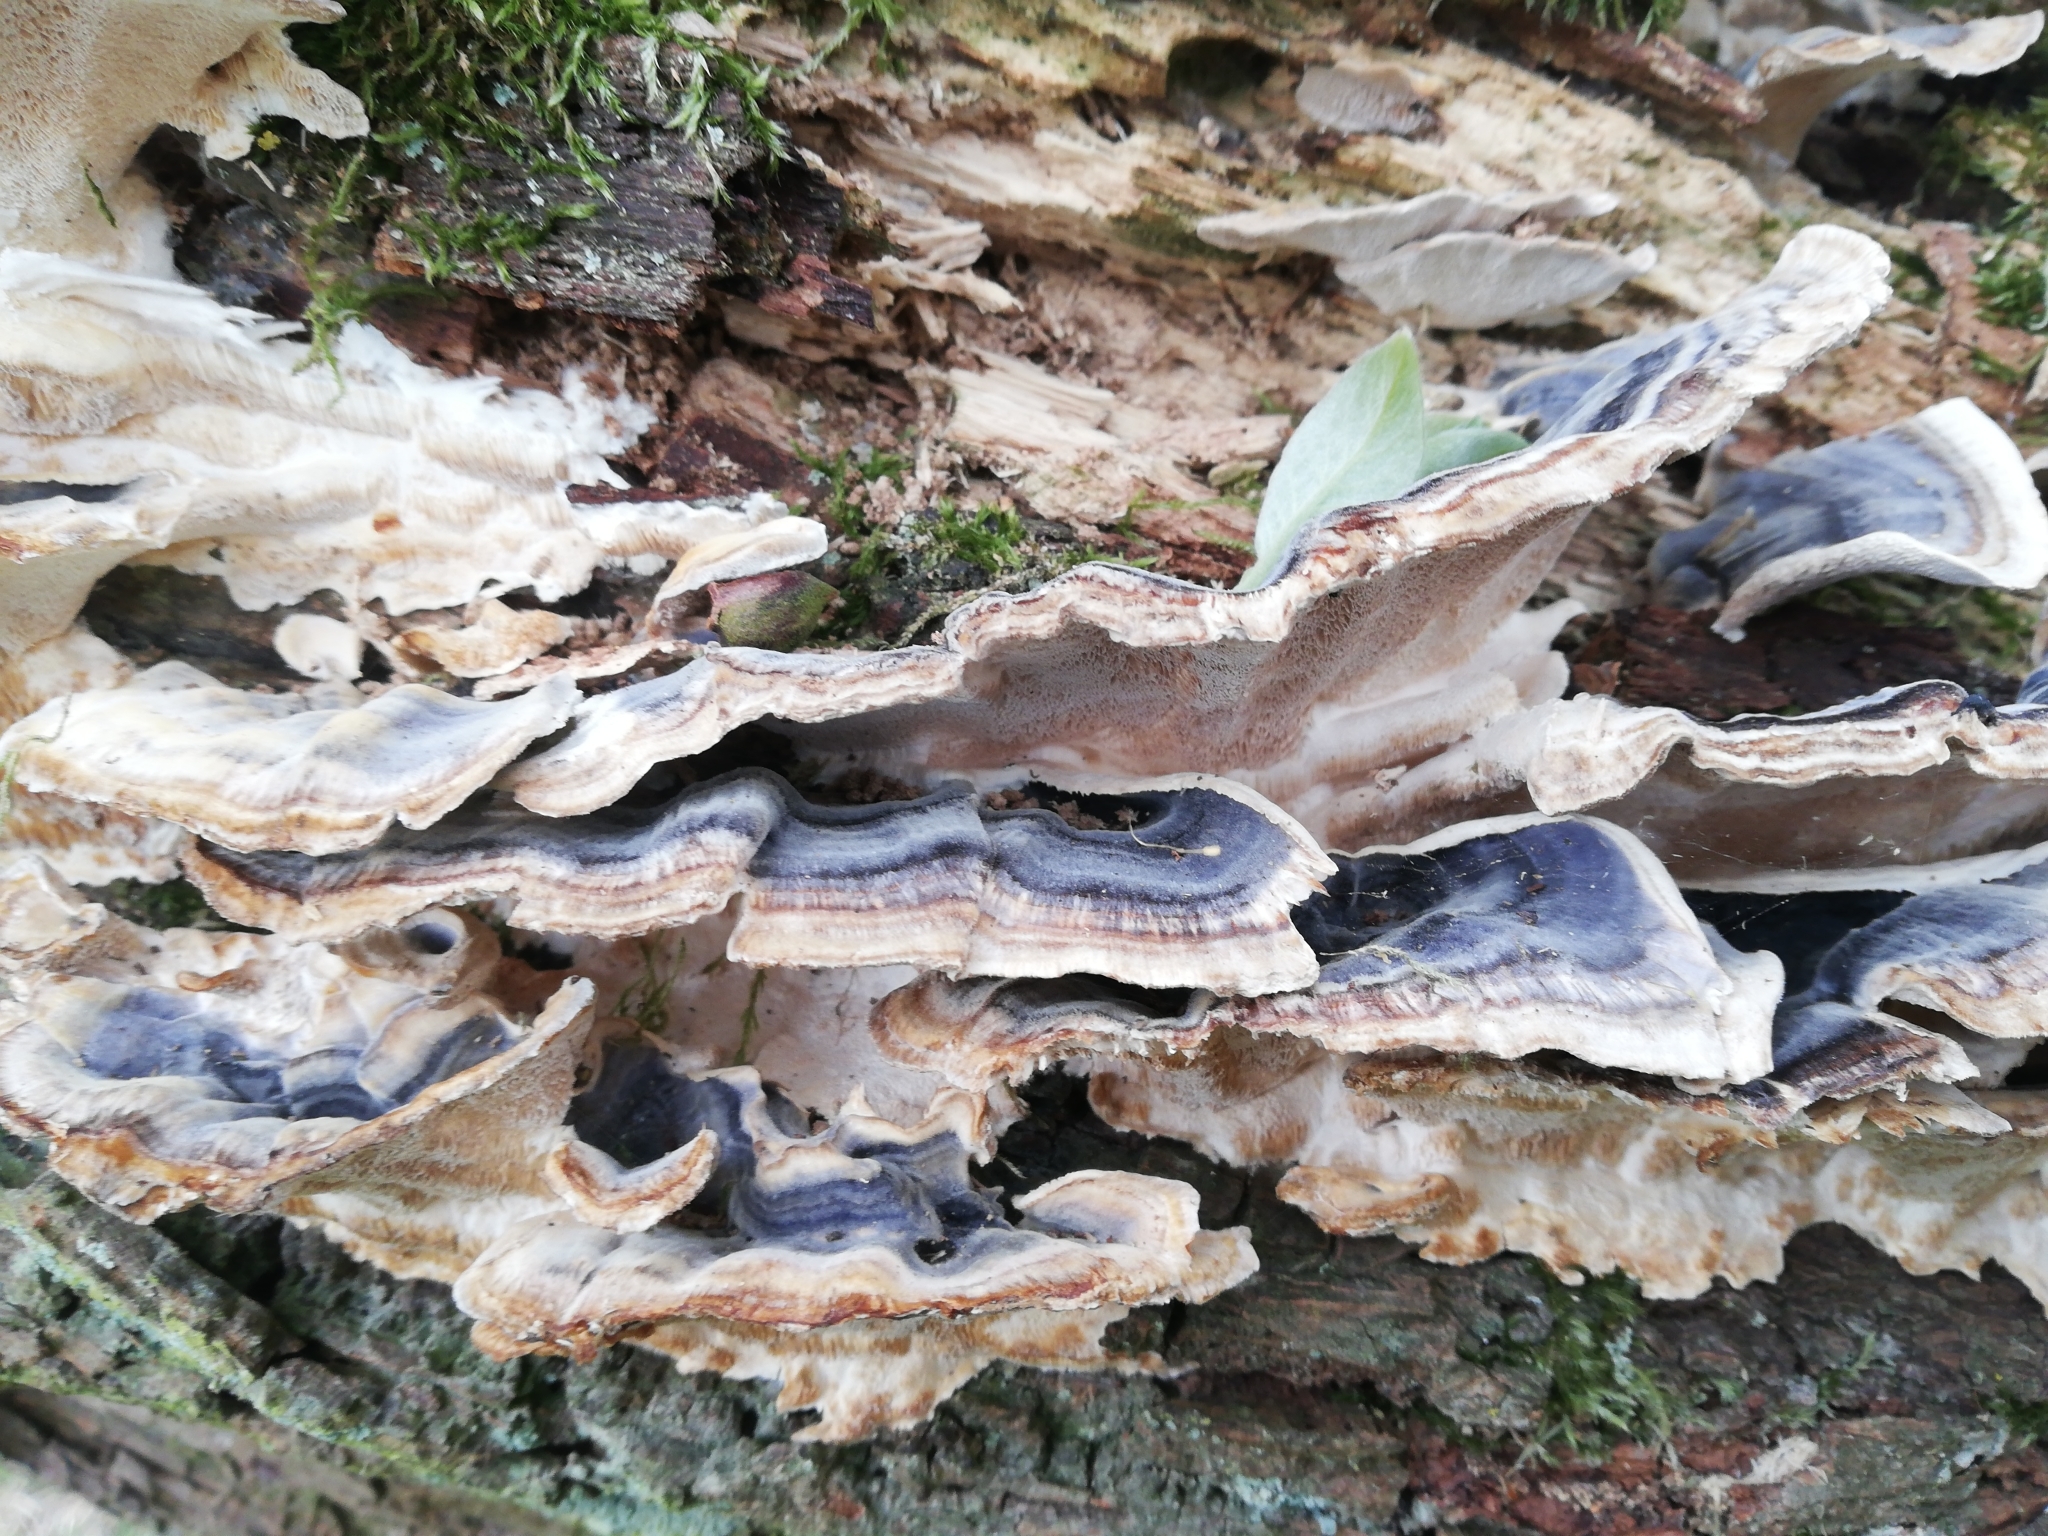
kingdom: Fungi
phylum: Basidiomycota
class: Agaricomycetes
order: Polyporales
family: Polyporaceae
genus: Trametes
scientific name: Trametes versicolor
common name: Turkeytail
